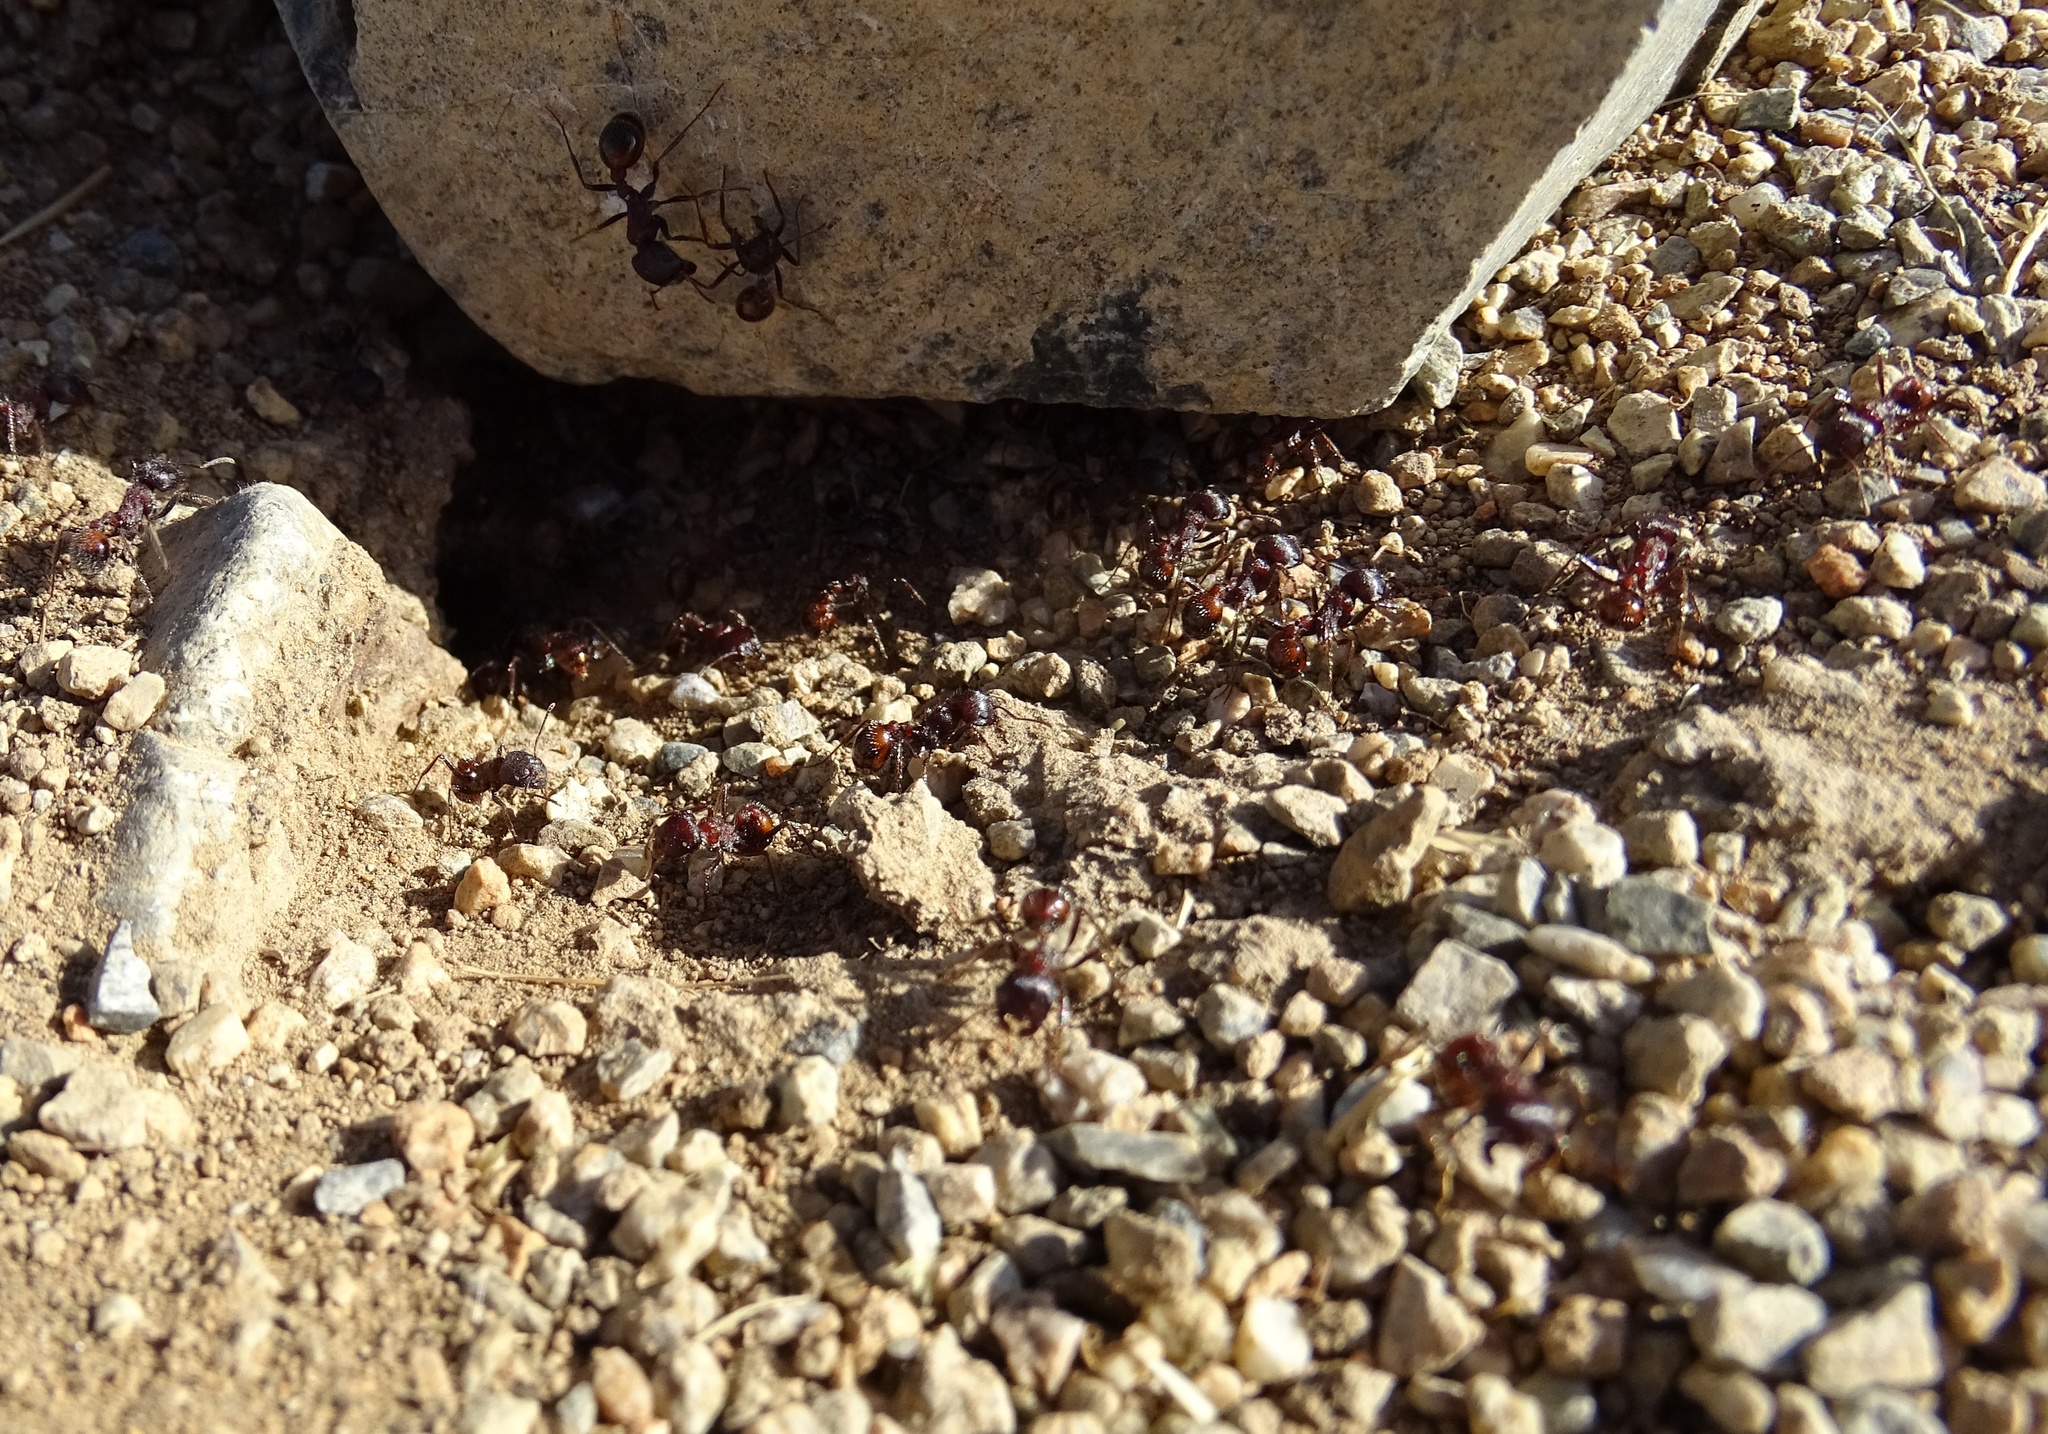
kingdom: Animalia
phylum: Arthropoda
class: Insecta
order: Hymenoptera
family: Formicidae
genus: Pogonomyrmex
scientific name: Pogonomyrmex rugosus
